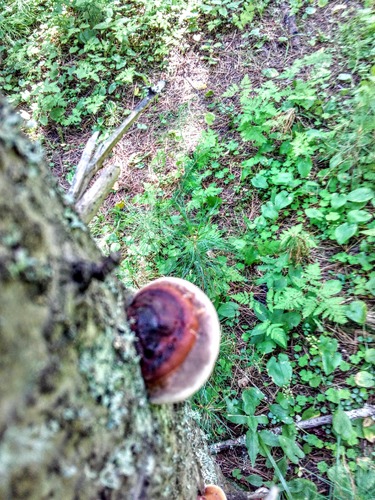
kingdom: Fungi
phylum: Basidiomycota
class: Agaricomycetes
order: Polyporales
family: Fomitopsidaceae
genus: Fomitopsis
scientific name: Fomitopsis pinicola
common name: Red-belted bracket
